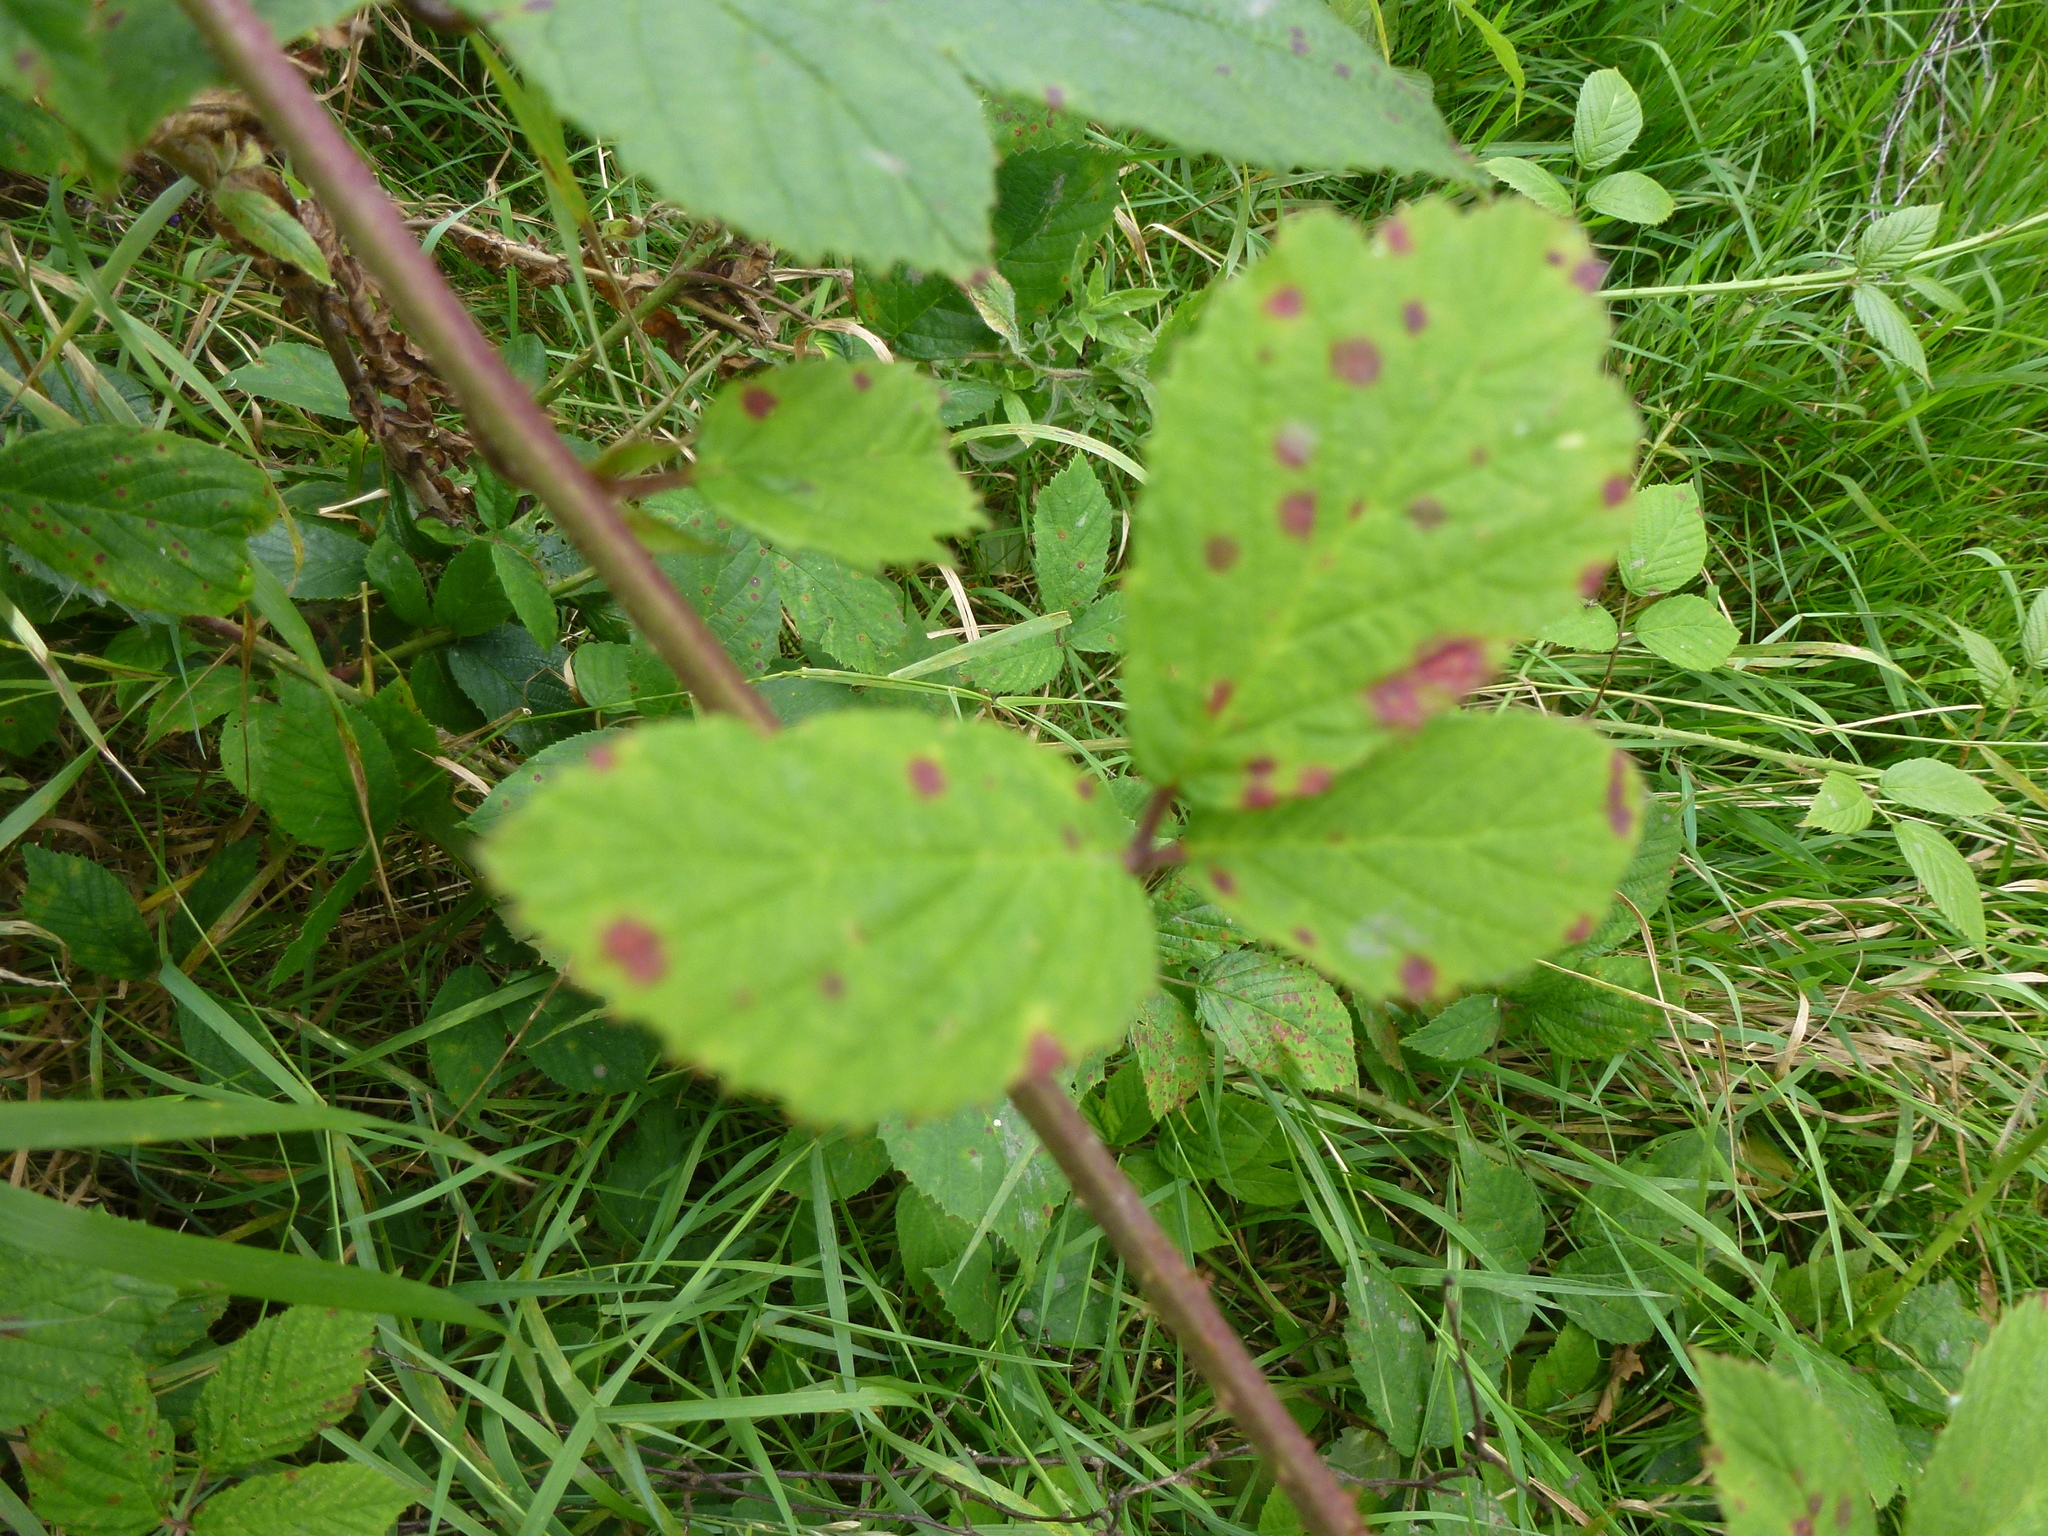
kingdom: Fungi
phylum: Basidiomycota
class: Pucciniomycetes
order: Pucciniales
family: Phragmidiaceae
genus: Phragmidium
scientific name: Phragmidium violaceum
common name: Violet bramble rust
